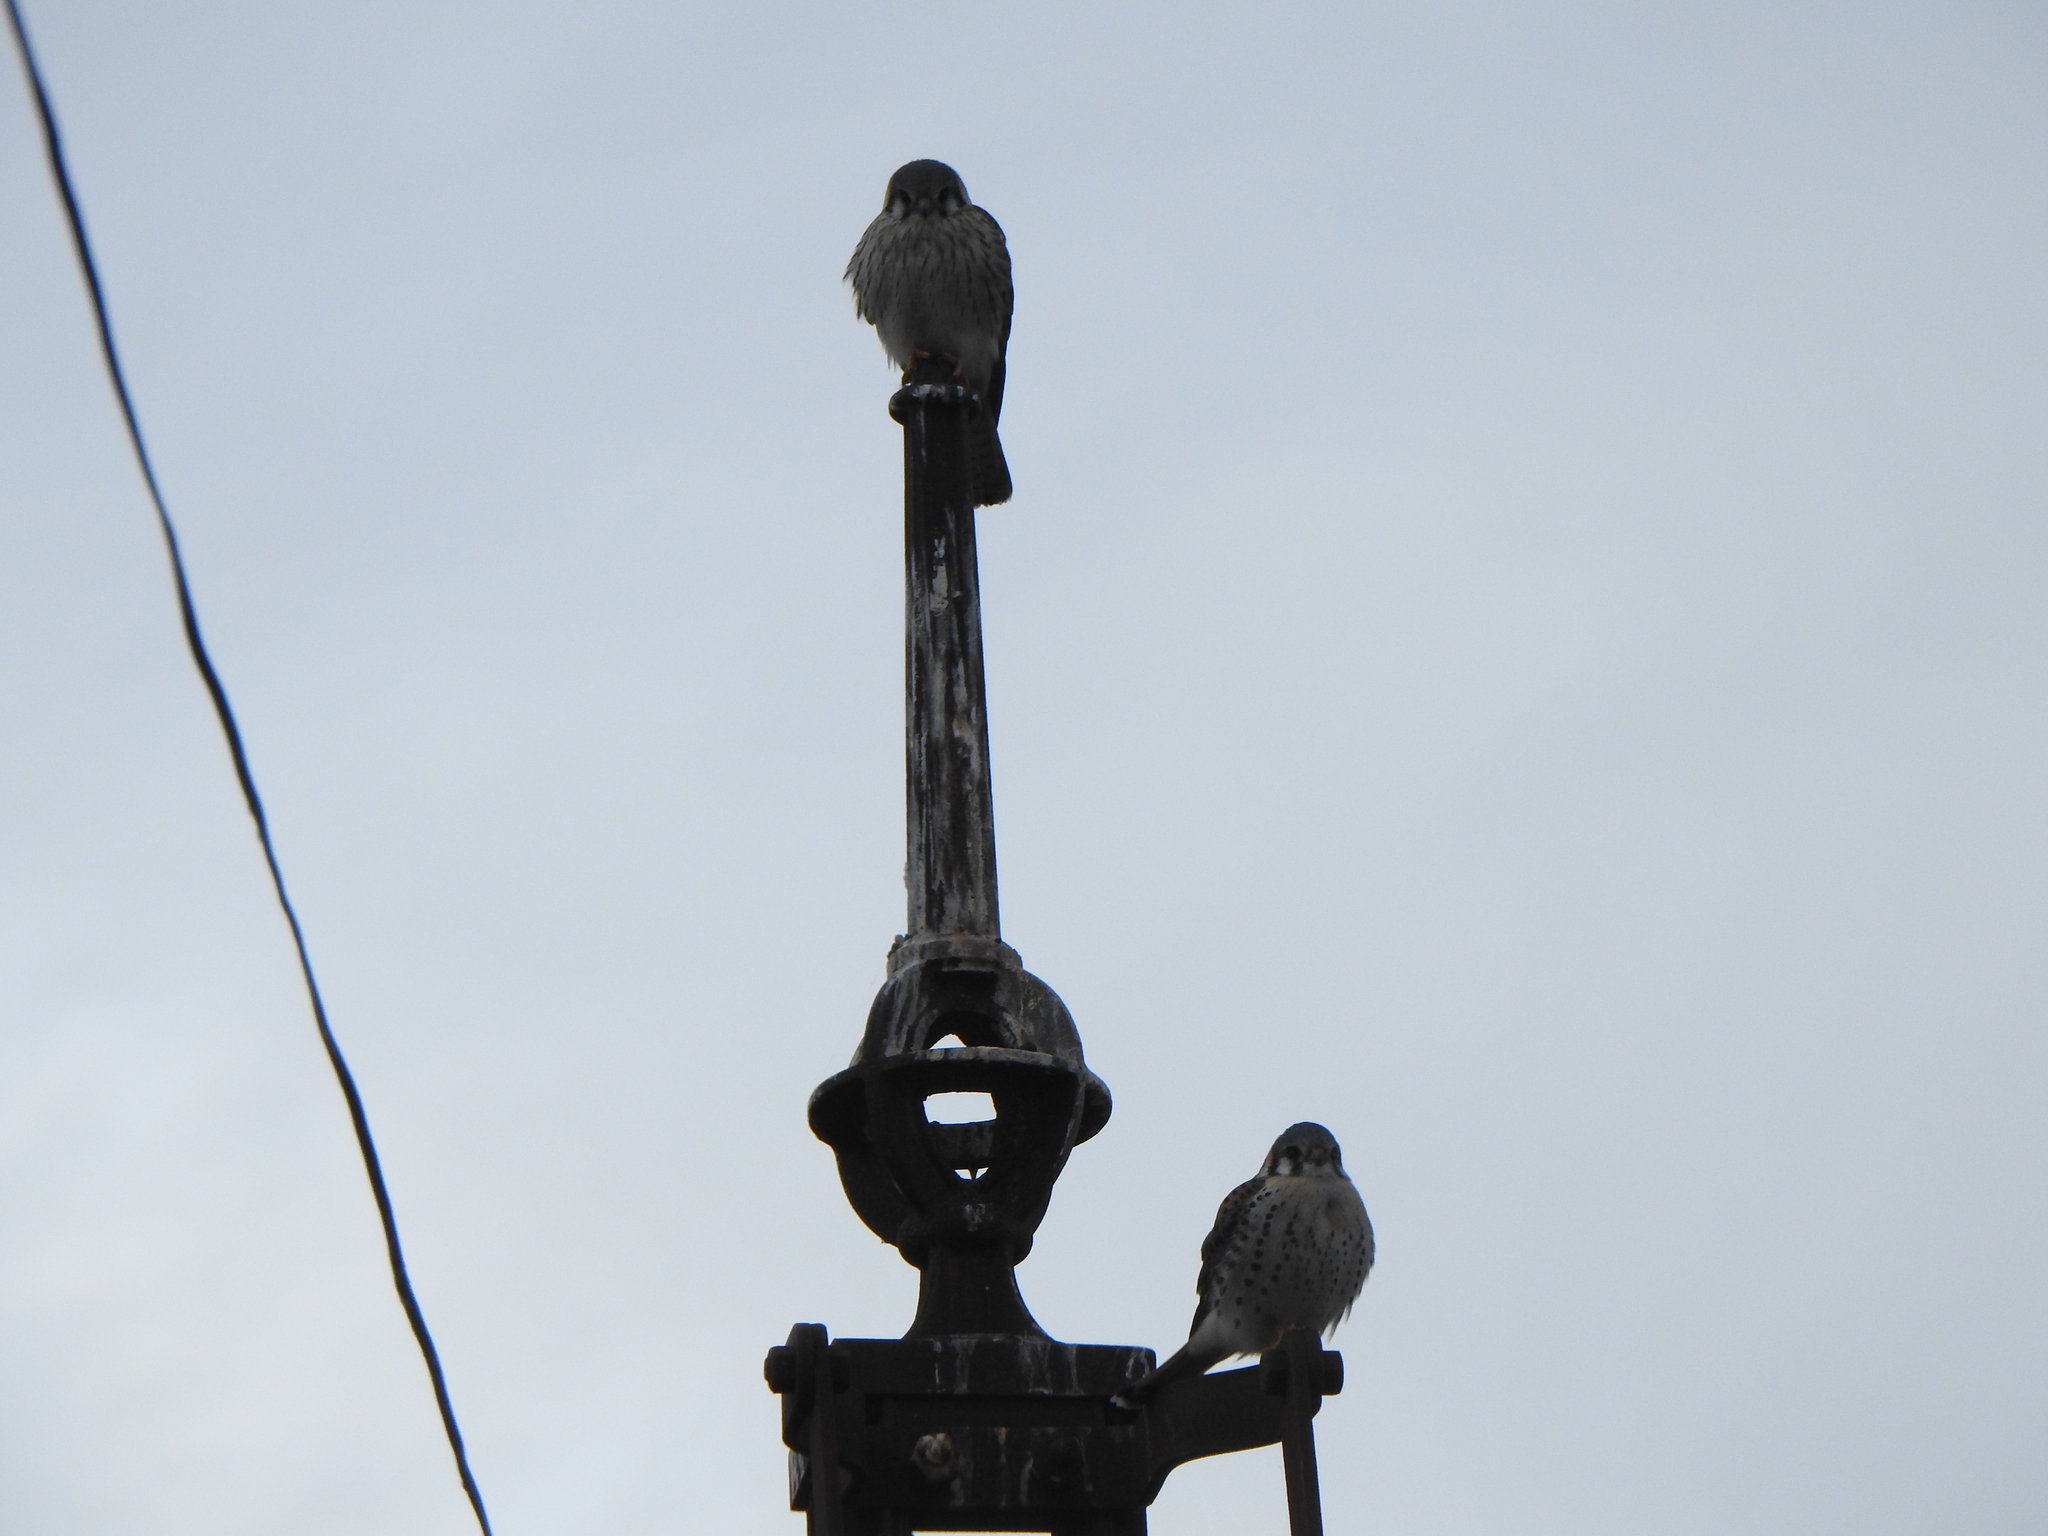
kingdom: Animalia
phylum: Chordata
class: Aves
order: Falconiformes
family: Falconidae
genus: Falco
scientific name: Falco sparverius
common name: American kestrel
